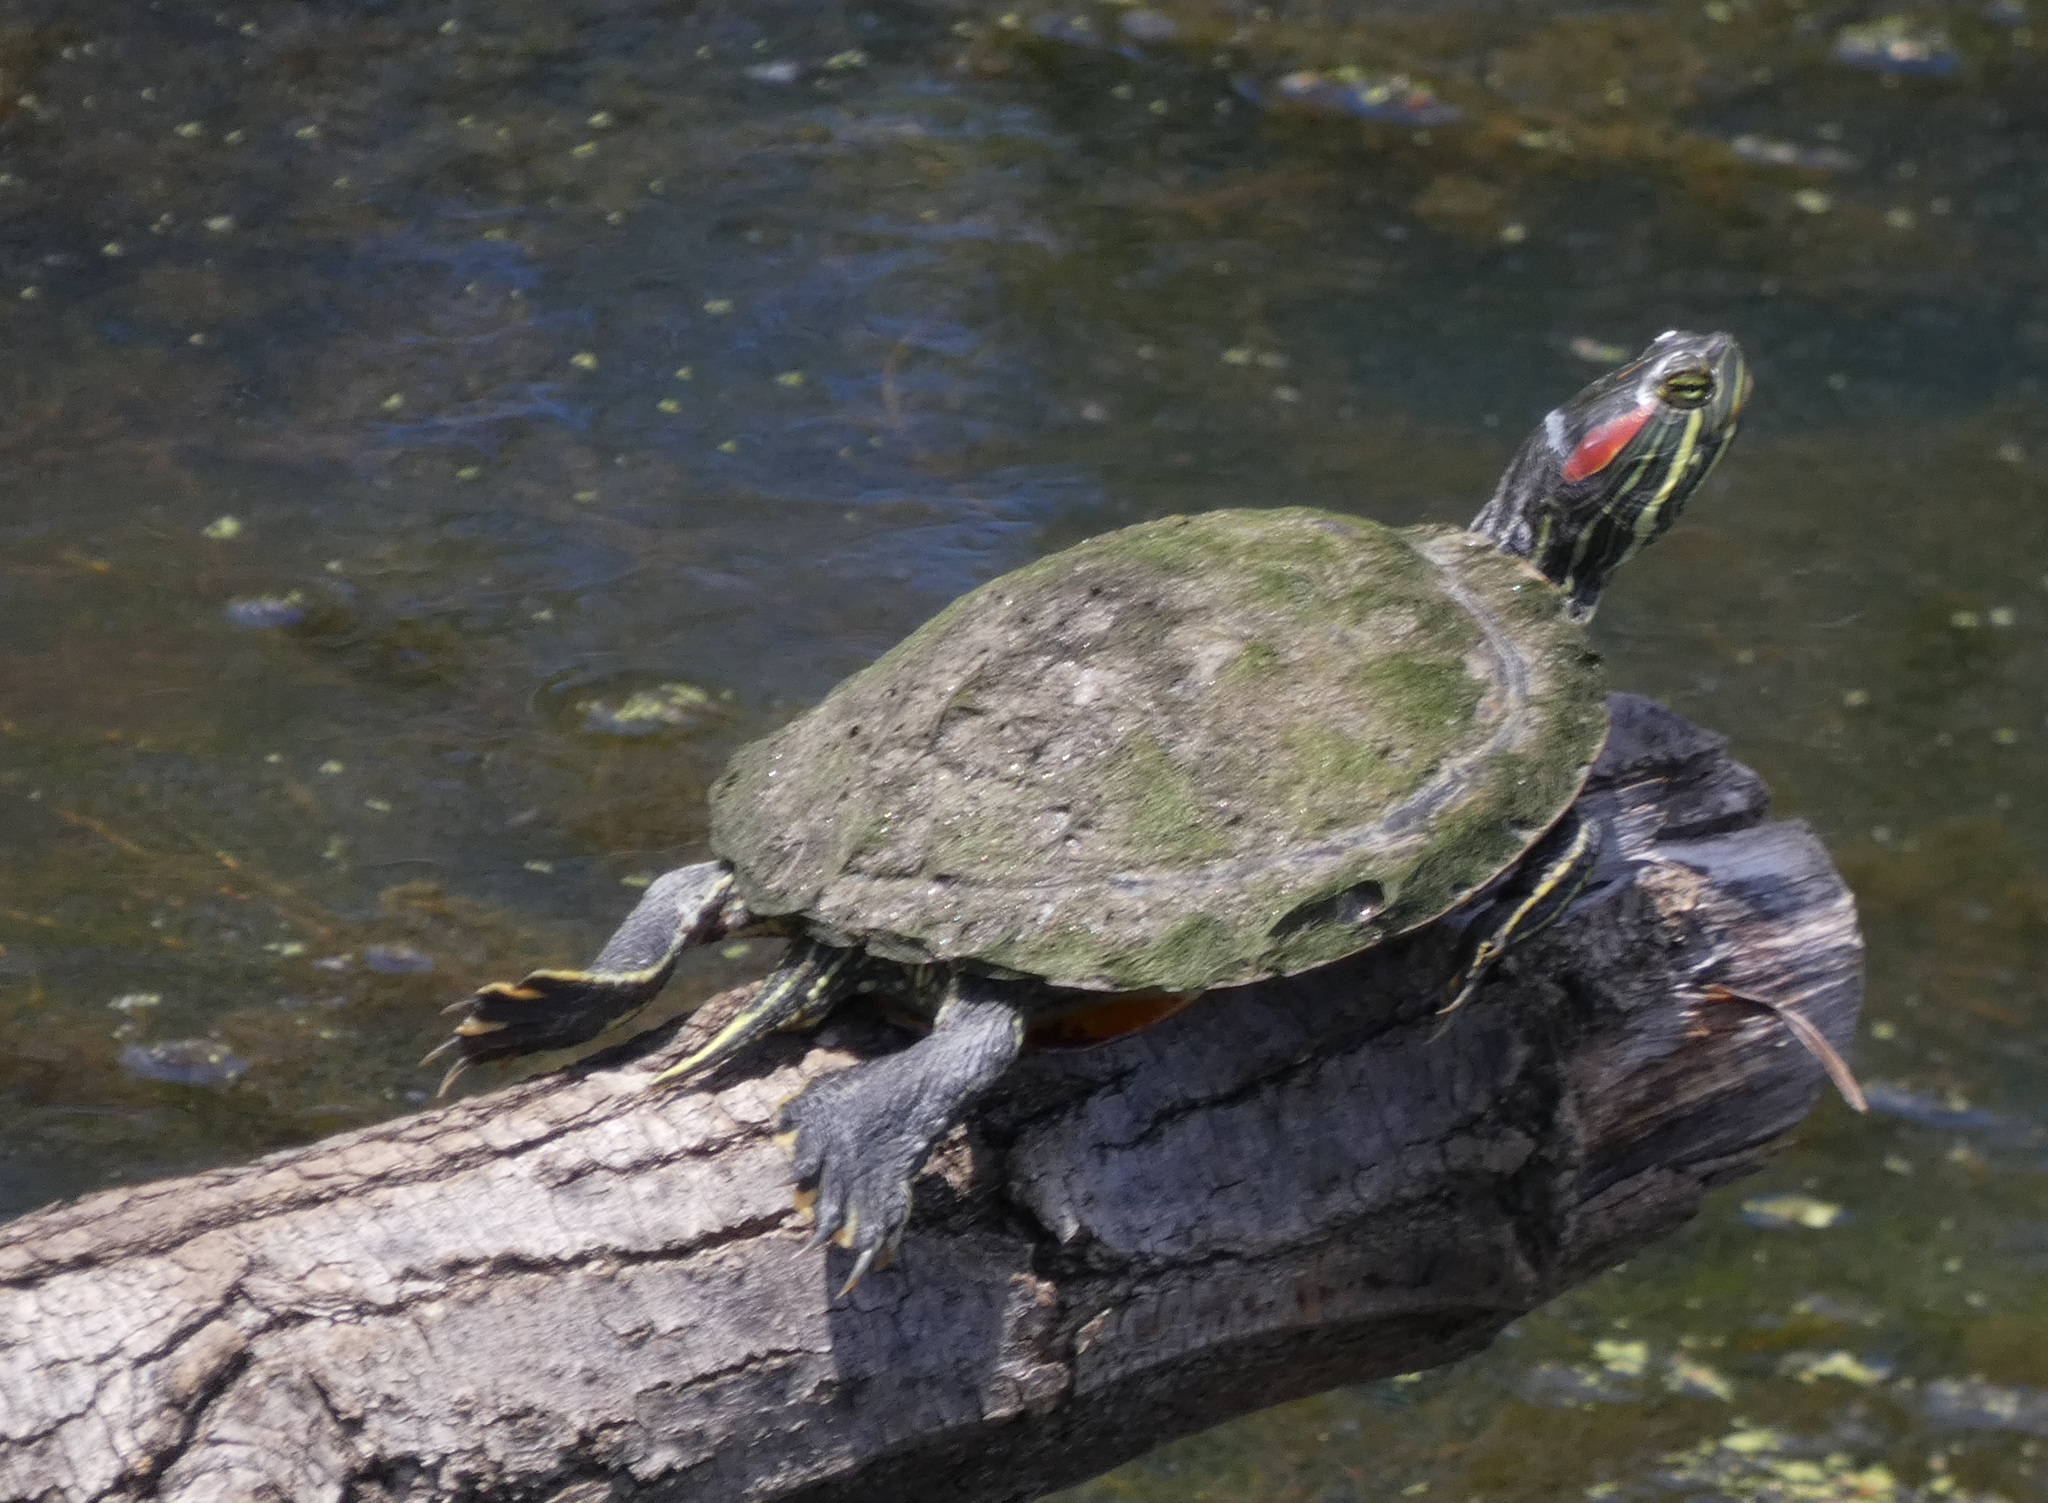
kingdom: Animalia
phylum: Chordata
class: Testudines
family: Emydidae
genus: Trachemys
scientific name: Trachemys scripta
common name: Slider
